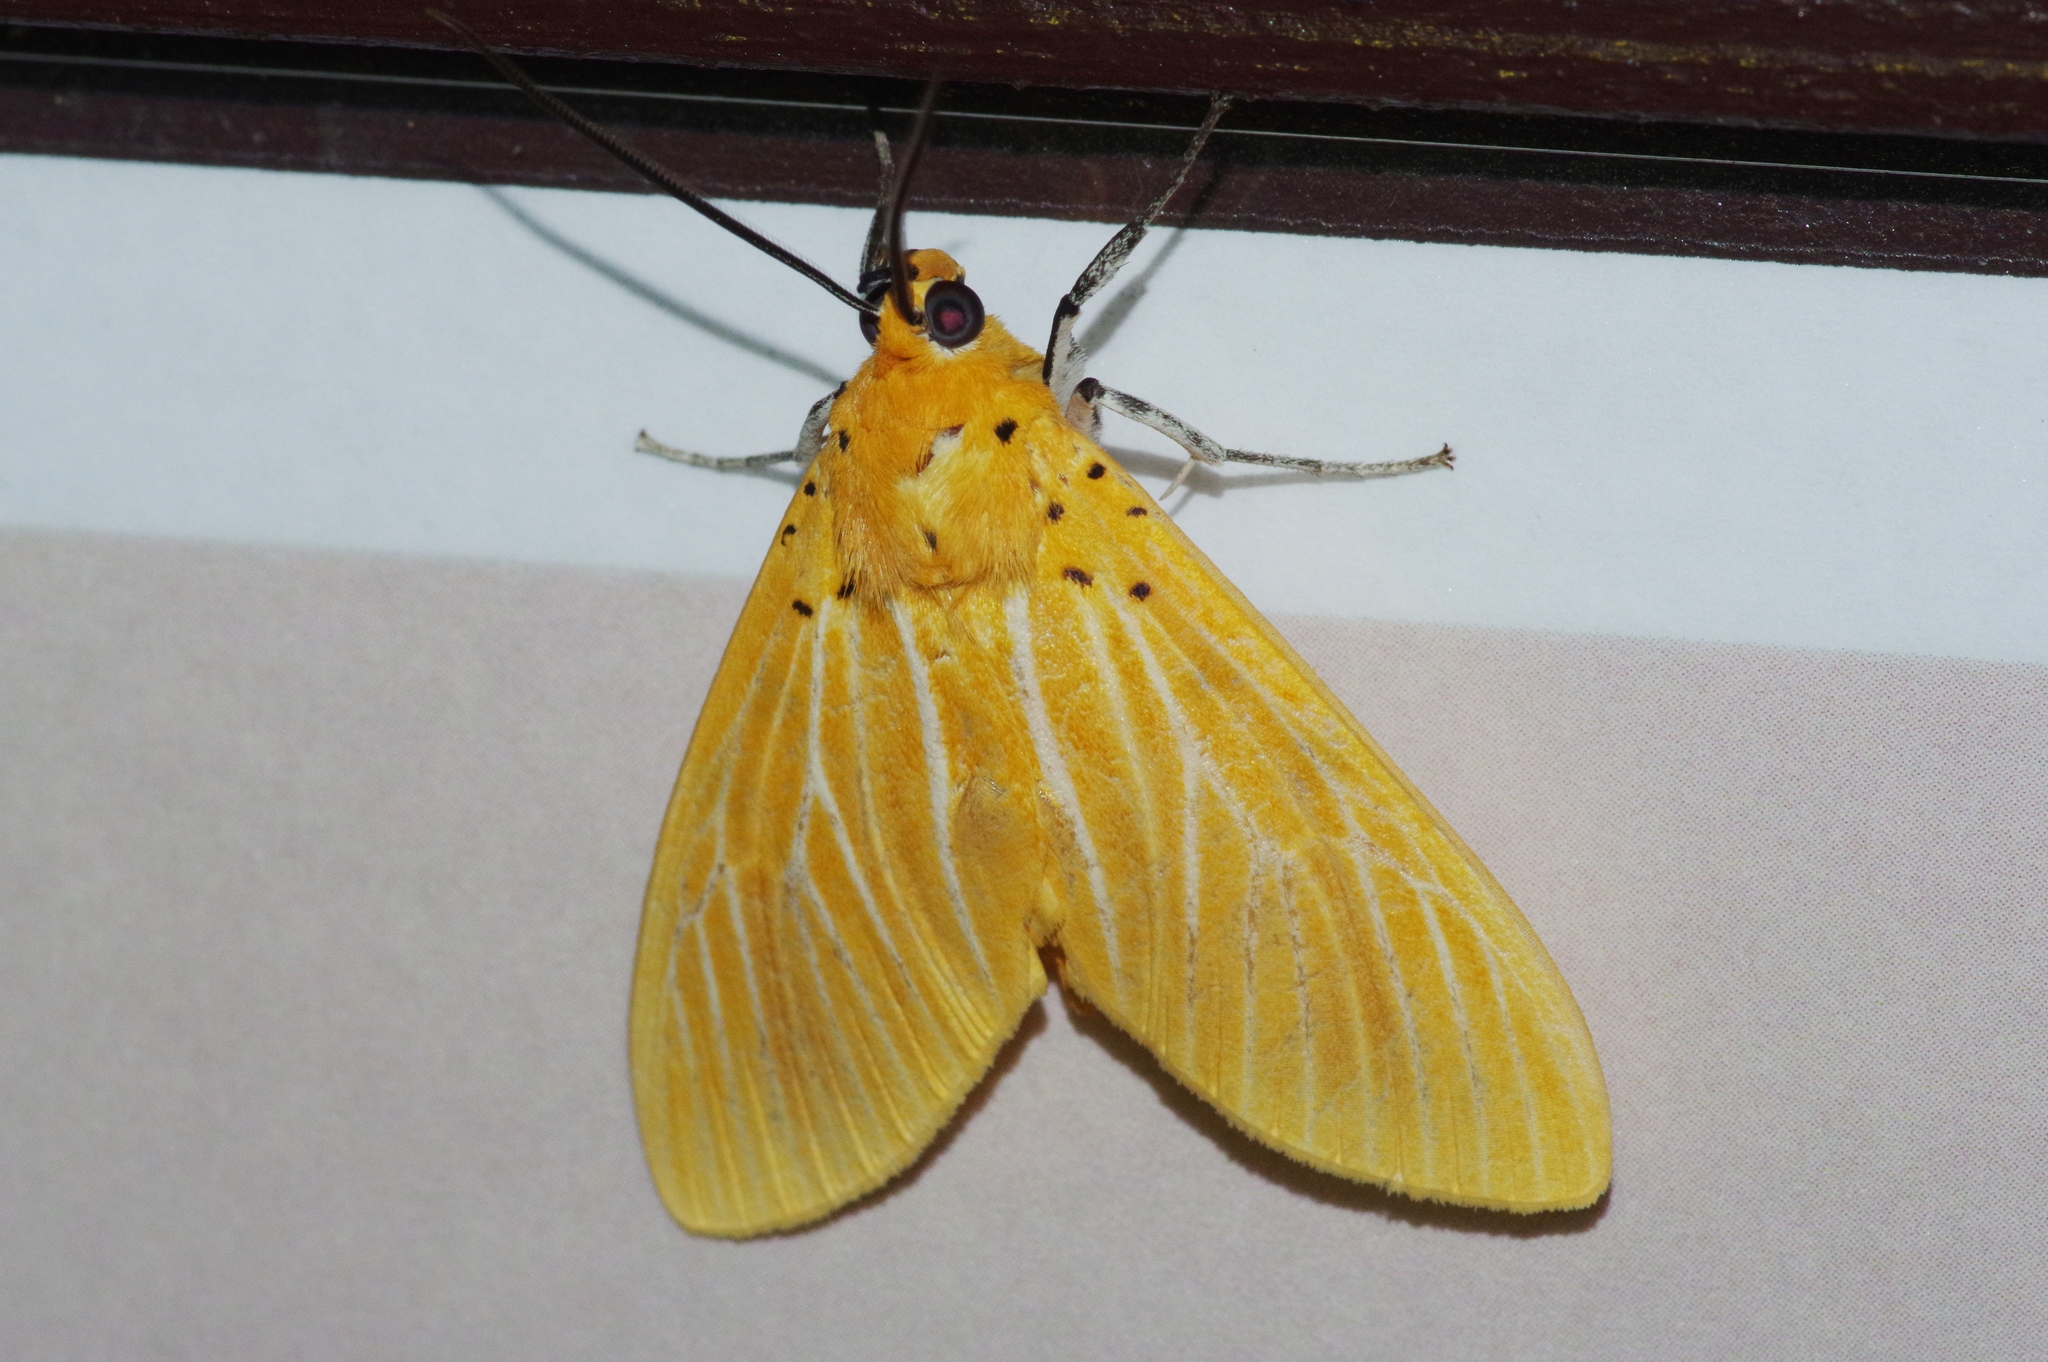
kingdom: Animalia
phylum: Arthropoda
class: Insecta
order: Lepidoptera
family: Erebidae
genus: Asota
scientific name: Asota egens
